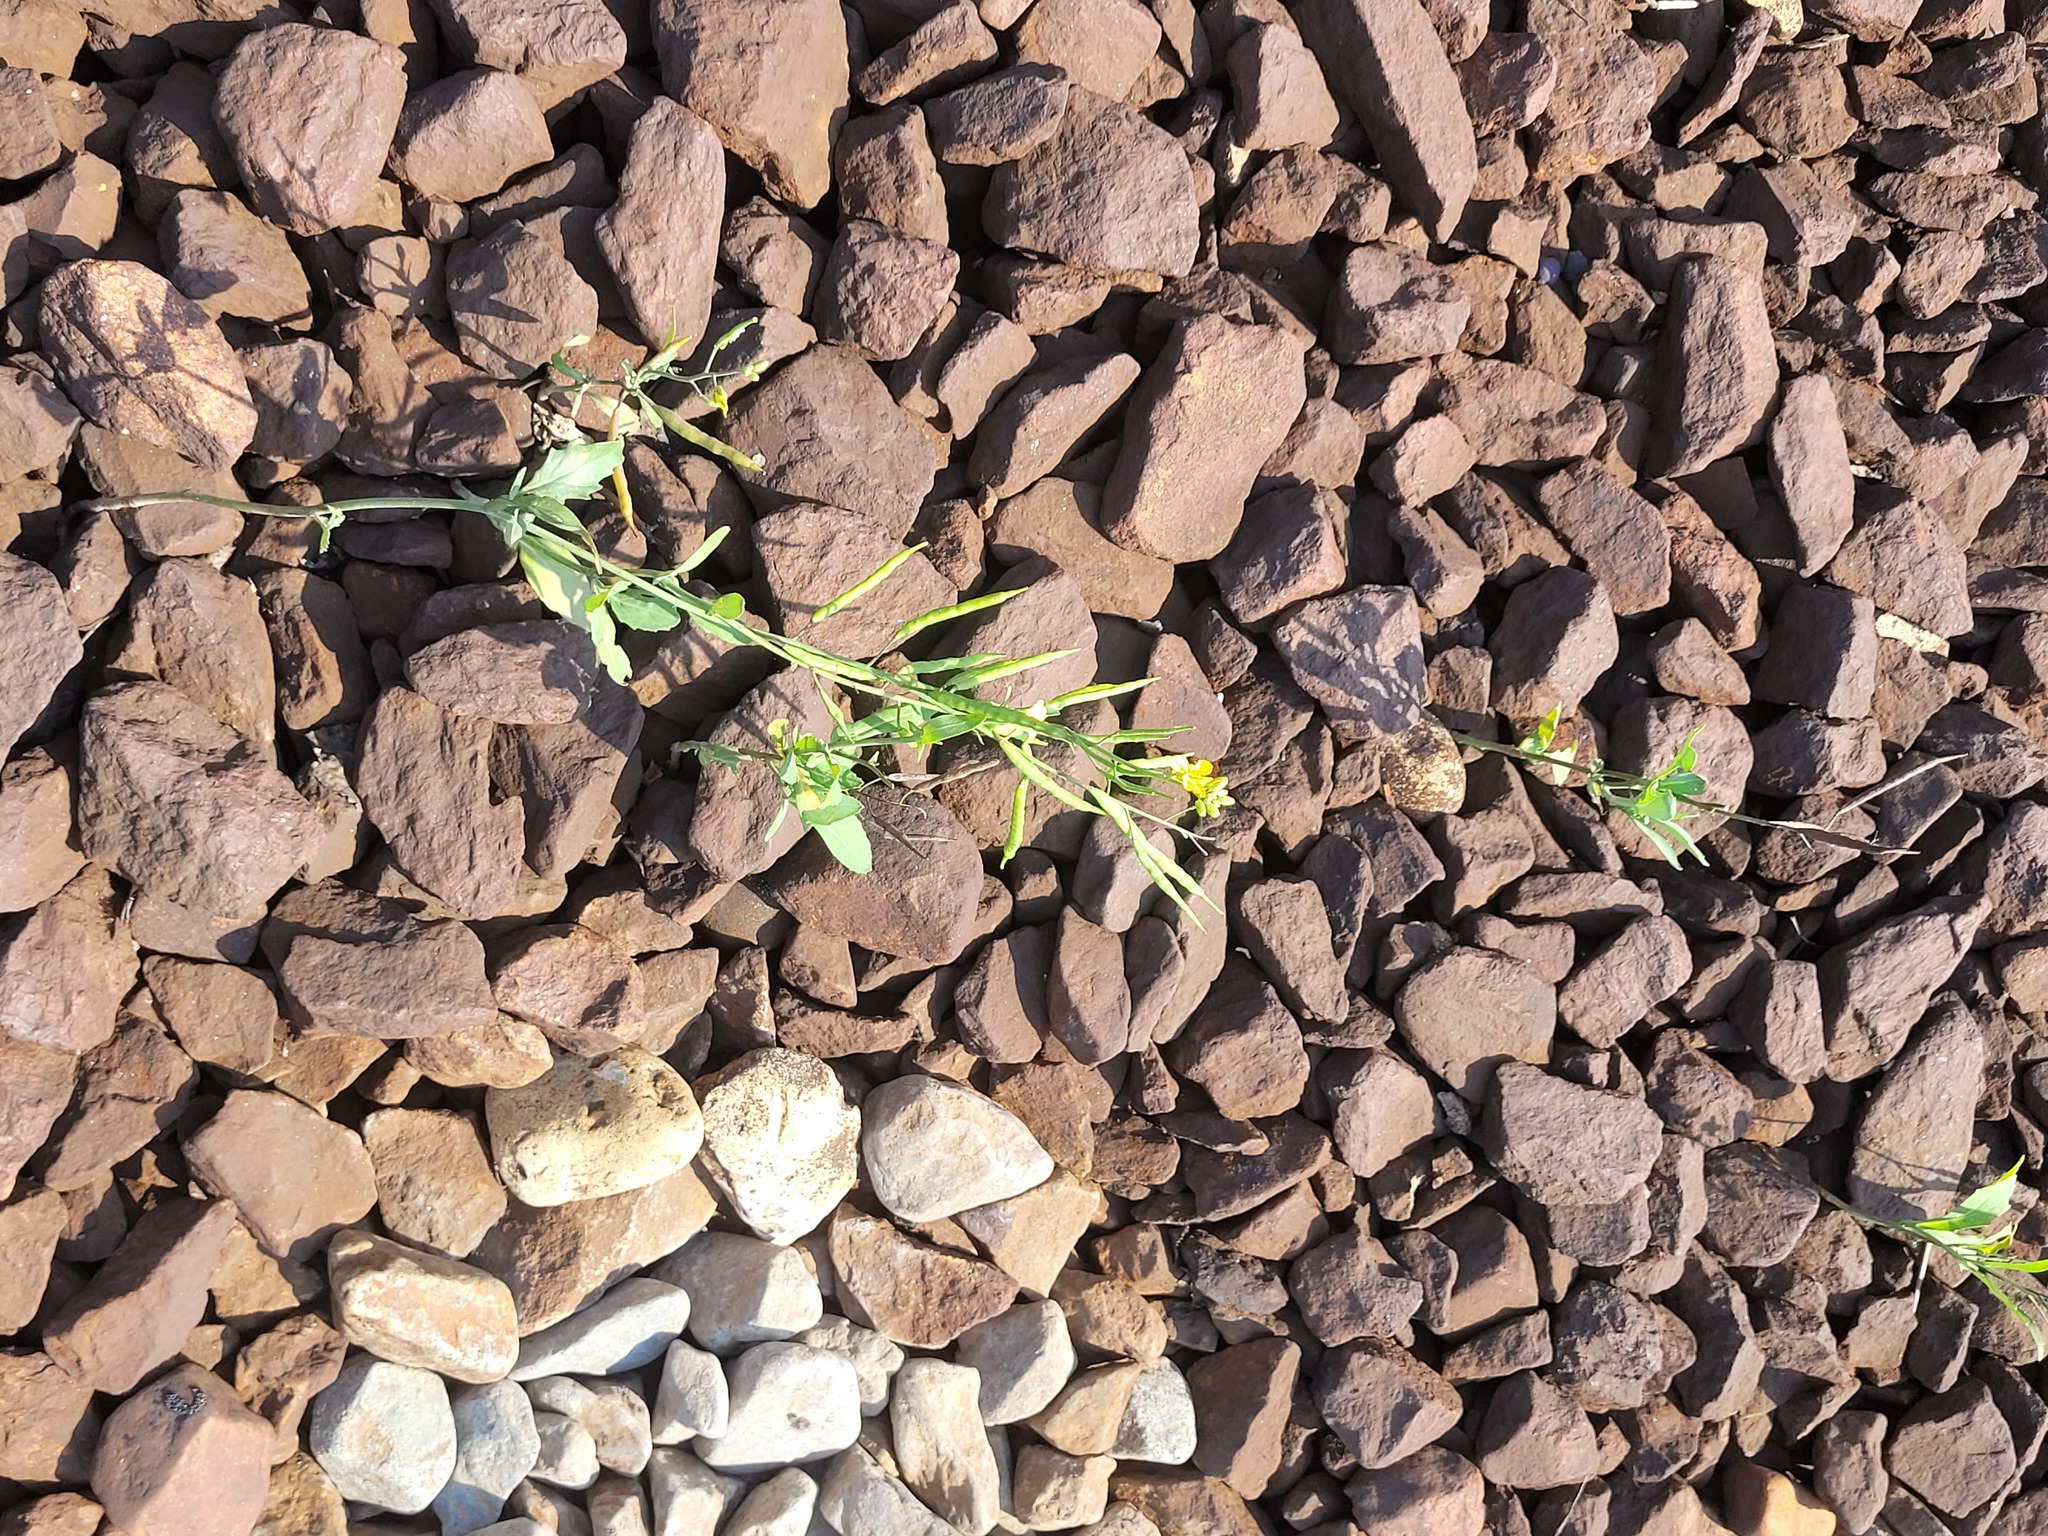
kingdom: Plantae
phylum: Tracheophyta
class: Magnoliopsida
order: Brassicales
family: Brassicaceae
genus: Brassica
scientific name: Brassica napus
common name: Rape
